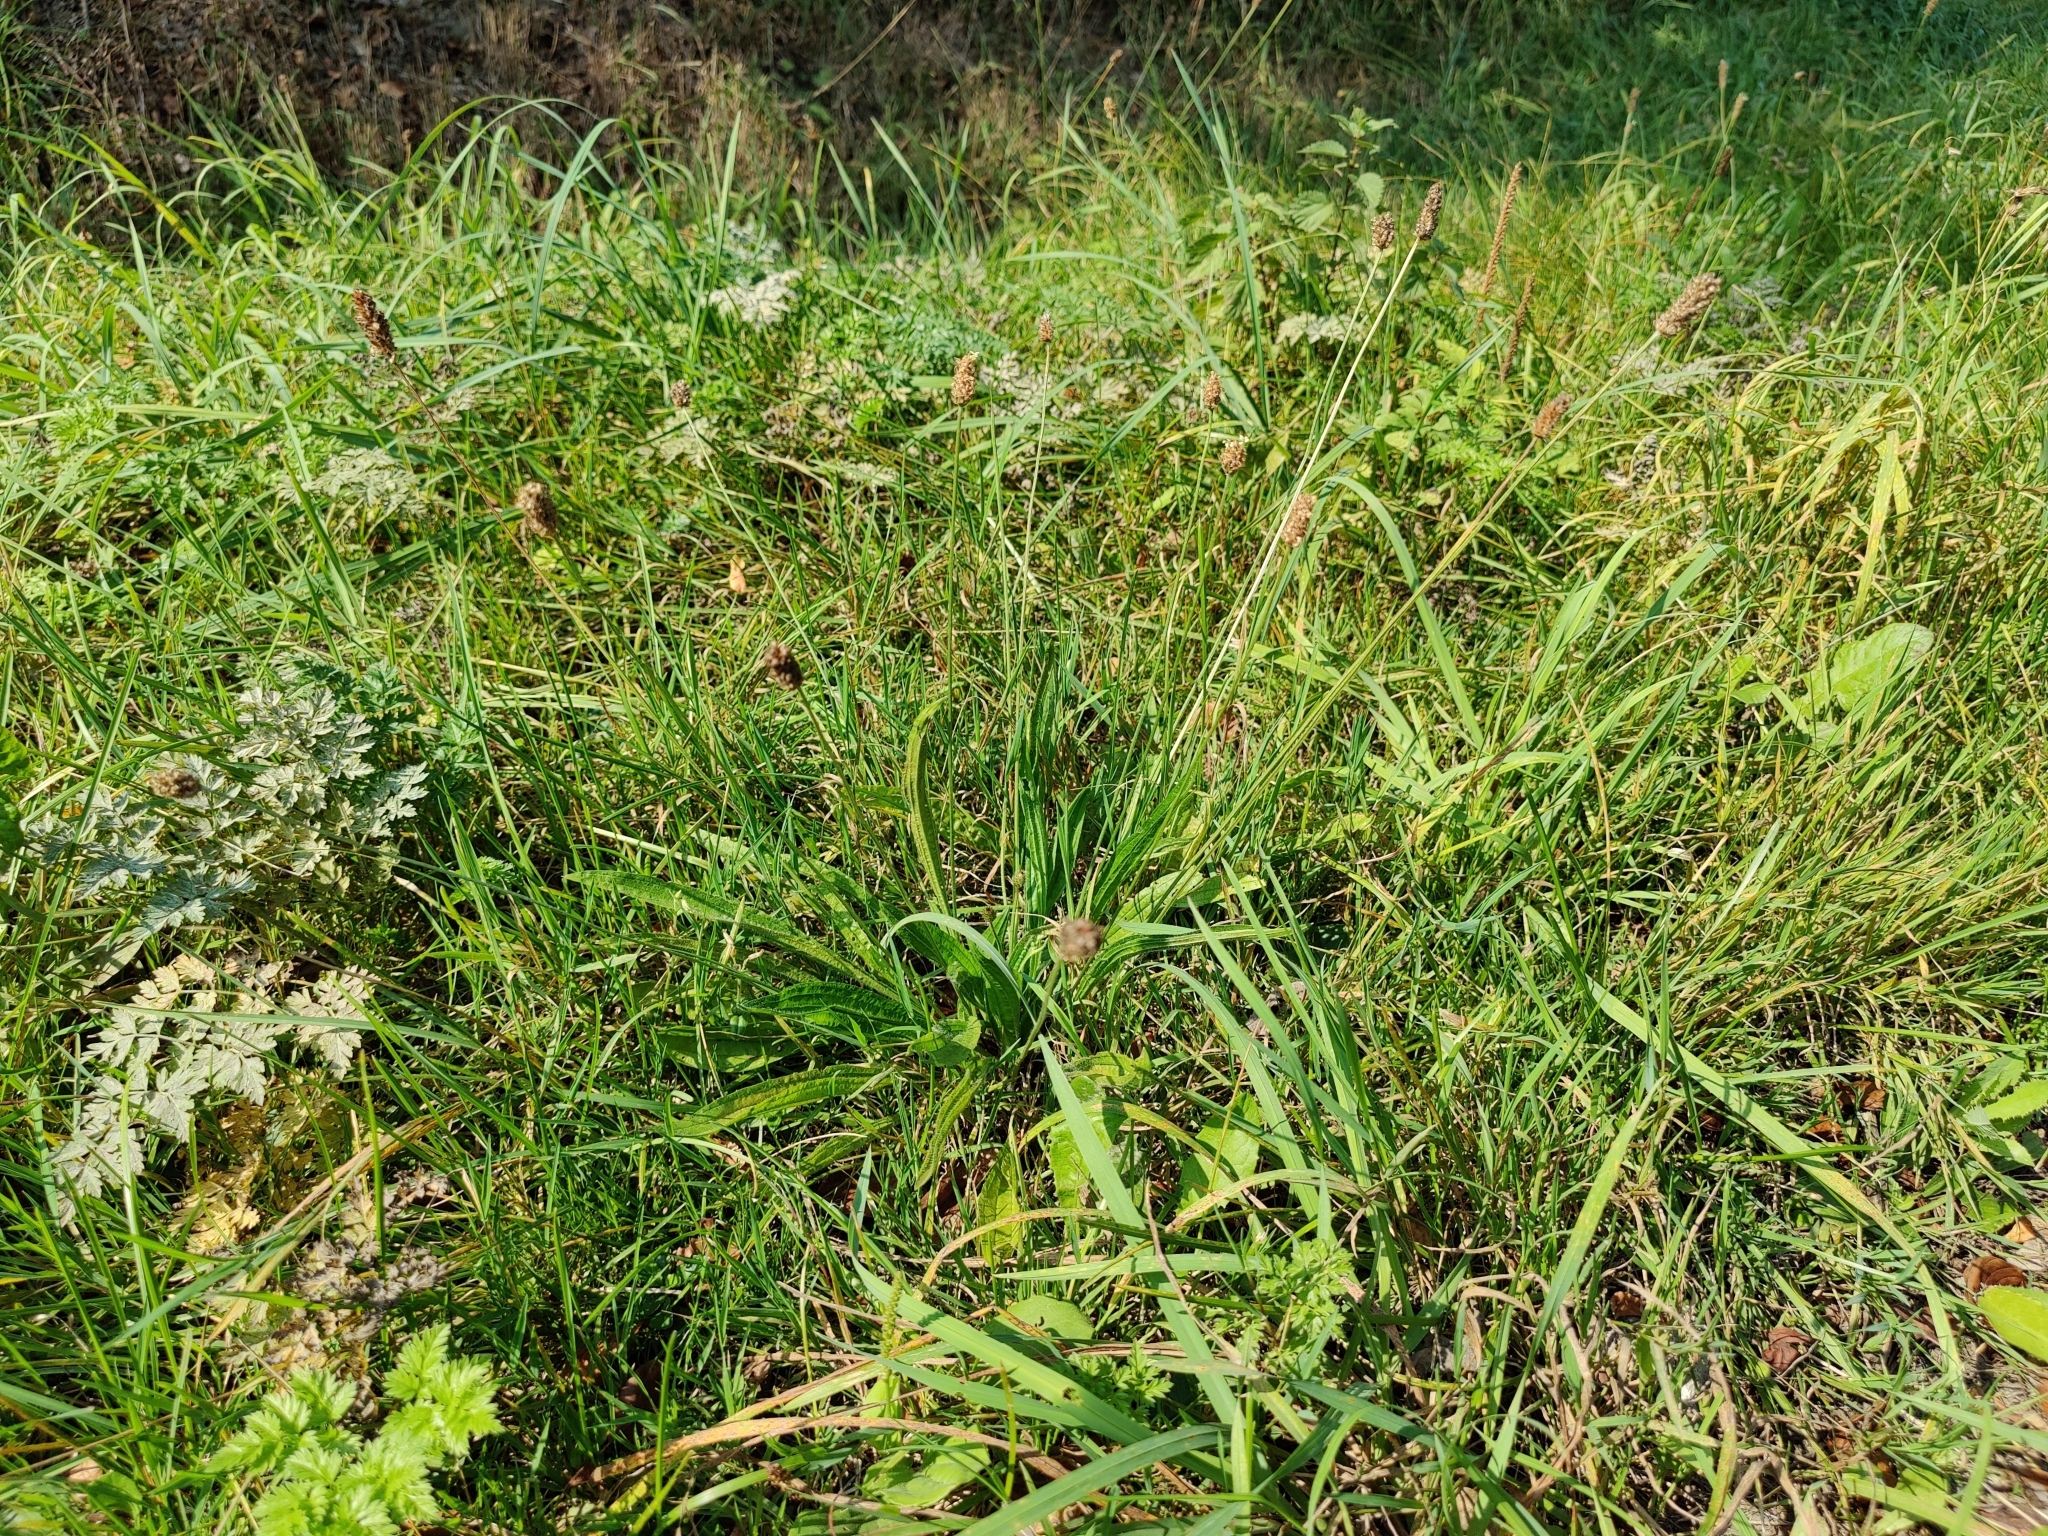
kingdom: Plantae
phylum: Tracheophyta
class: Magnoliopsida
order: Lamiales
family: Plantaginaceae
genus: Plantago
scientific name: Plantago lanceolata
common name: Ribwort plantain
